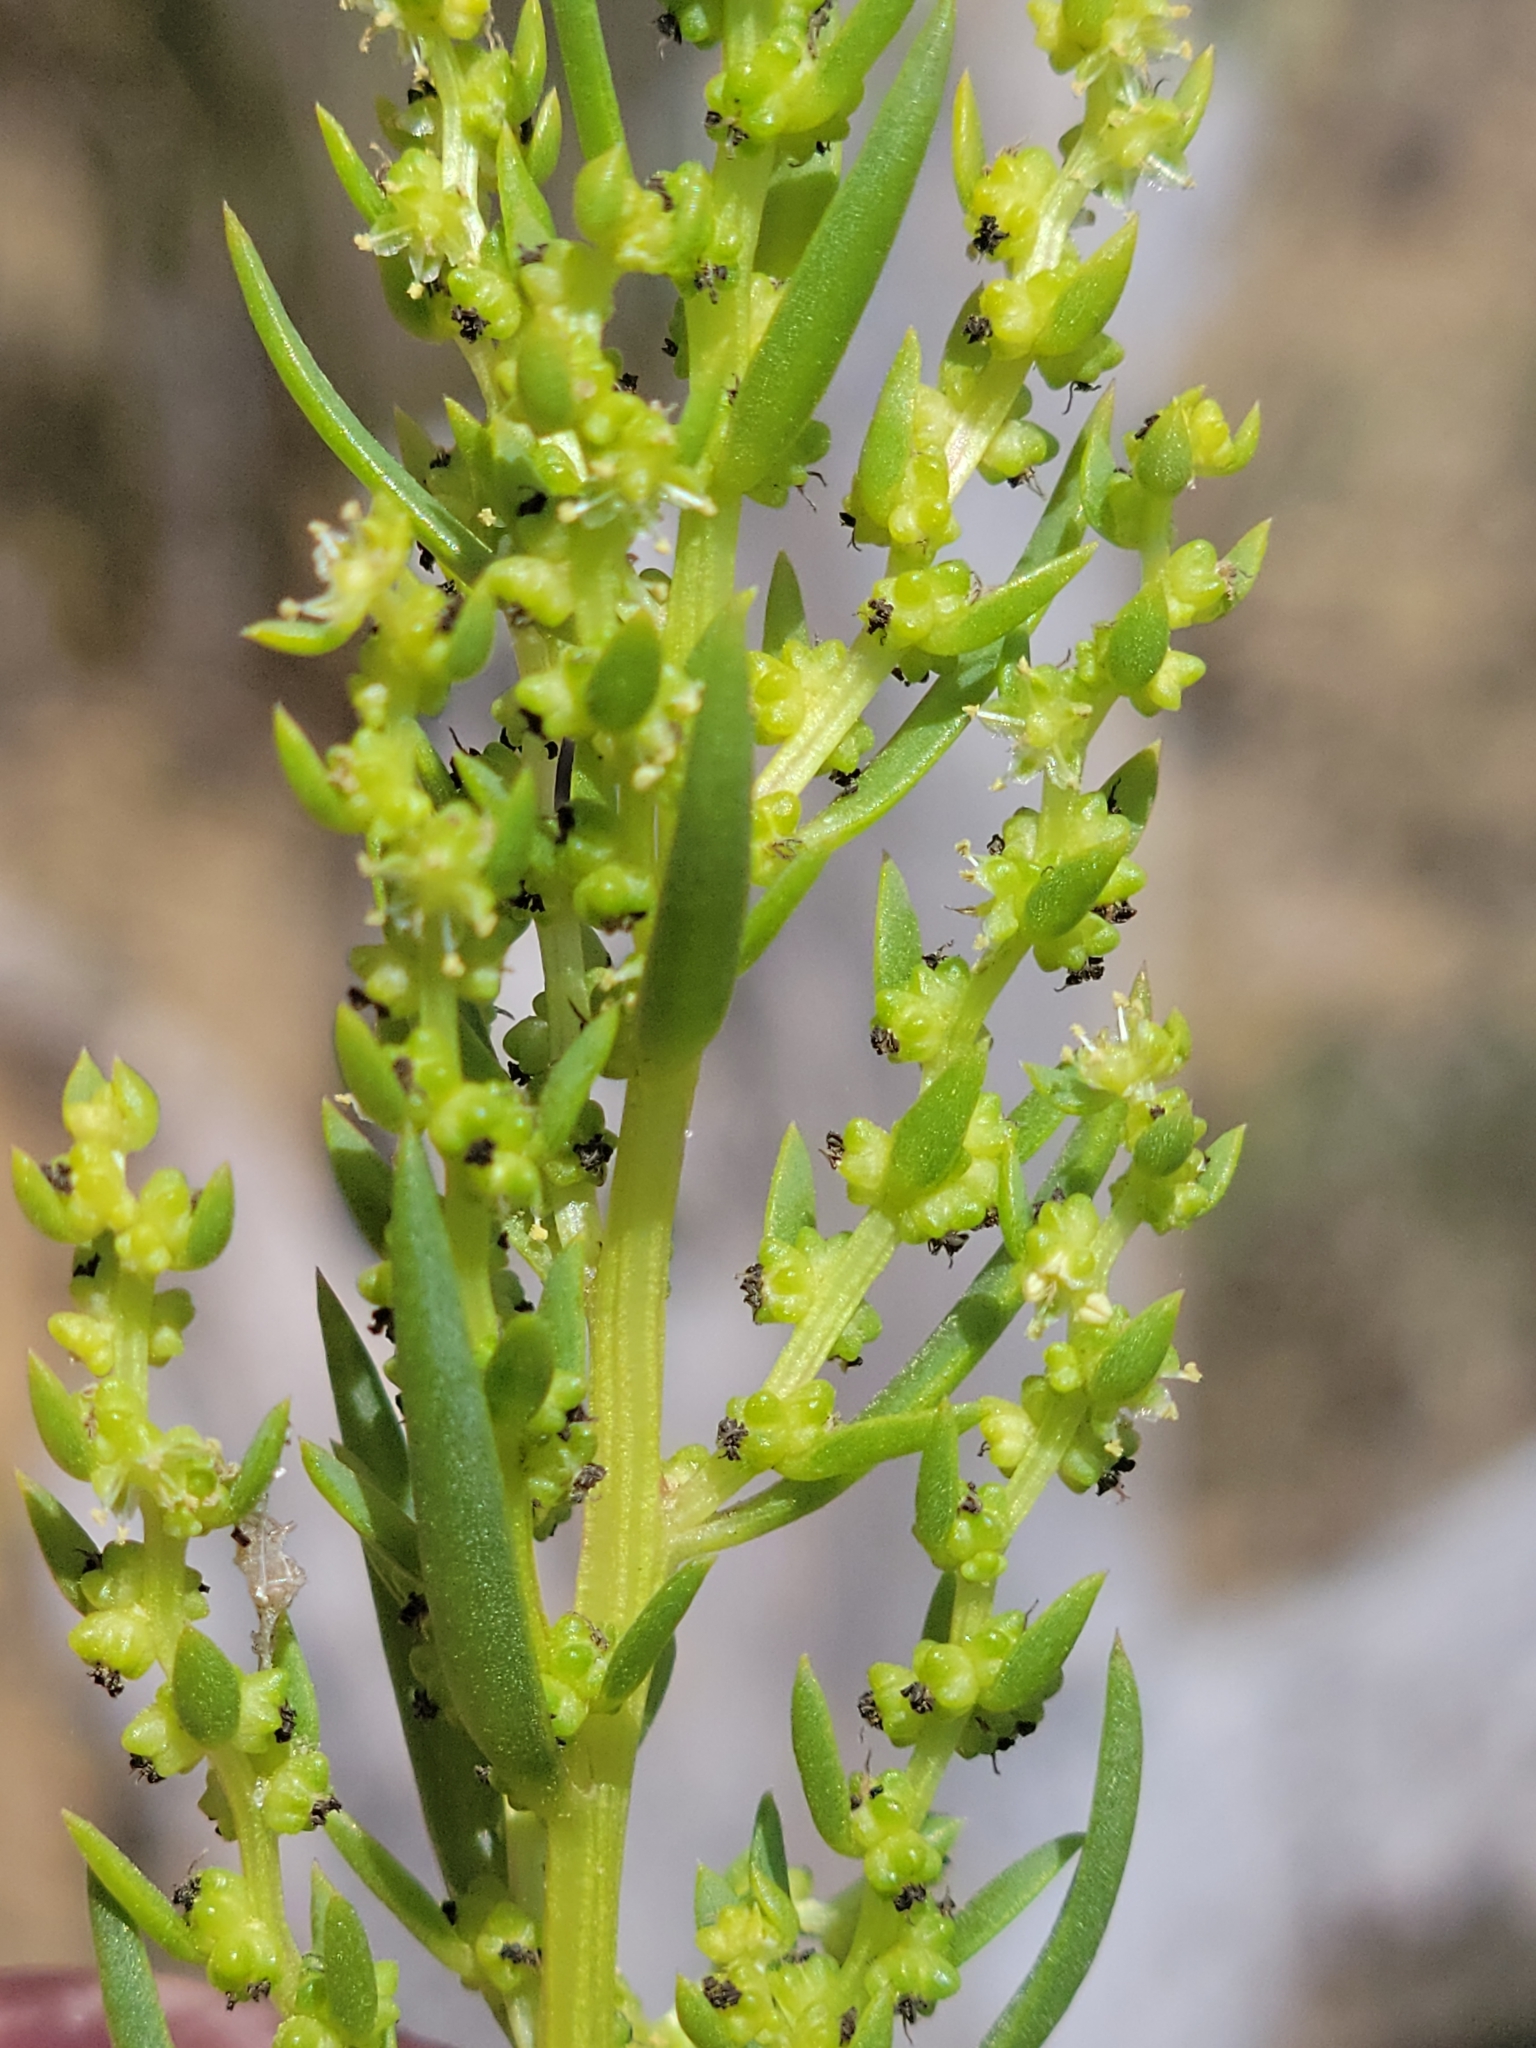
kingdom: Plantae
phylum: Tracheophyta
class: Magnoliopsida
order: Caryophyllales
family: Amaranthaceae
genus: Suaeda
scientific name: Suaeda linearis
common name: Annual seepweed
